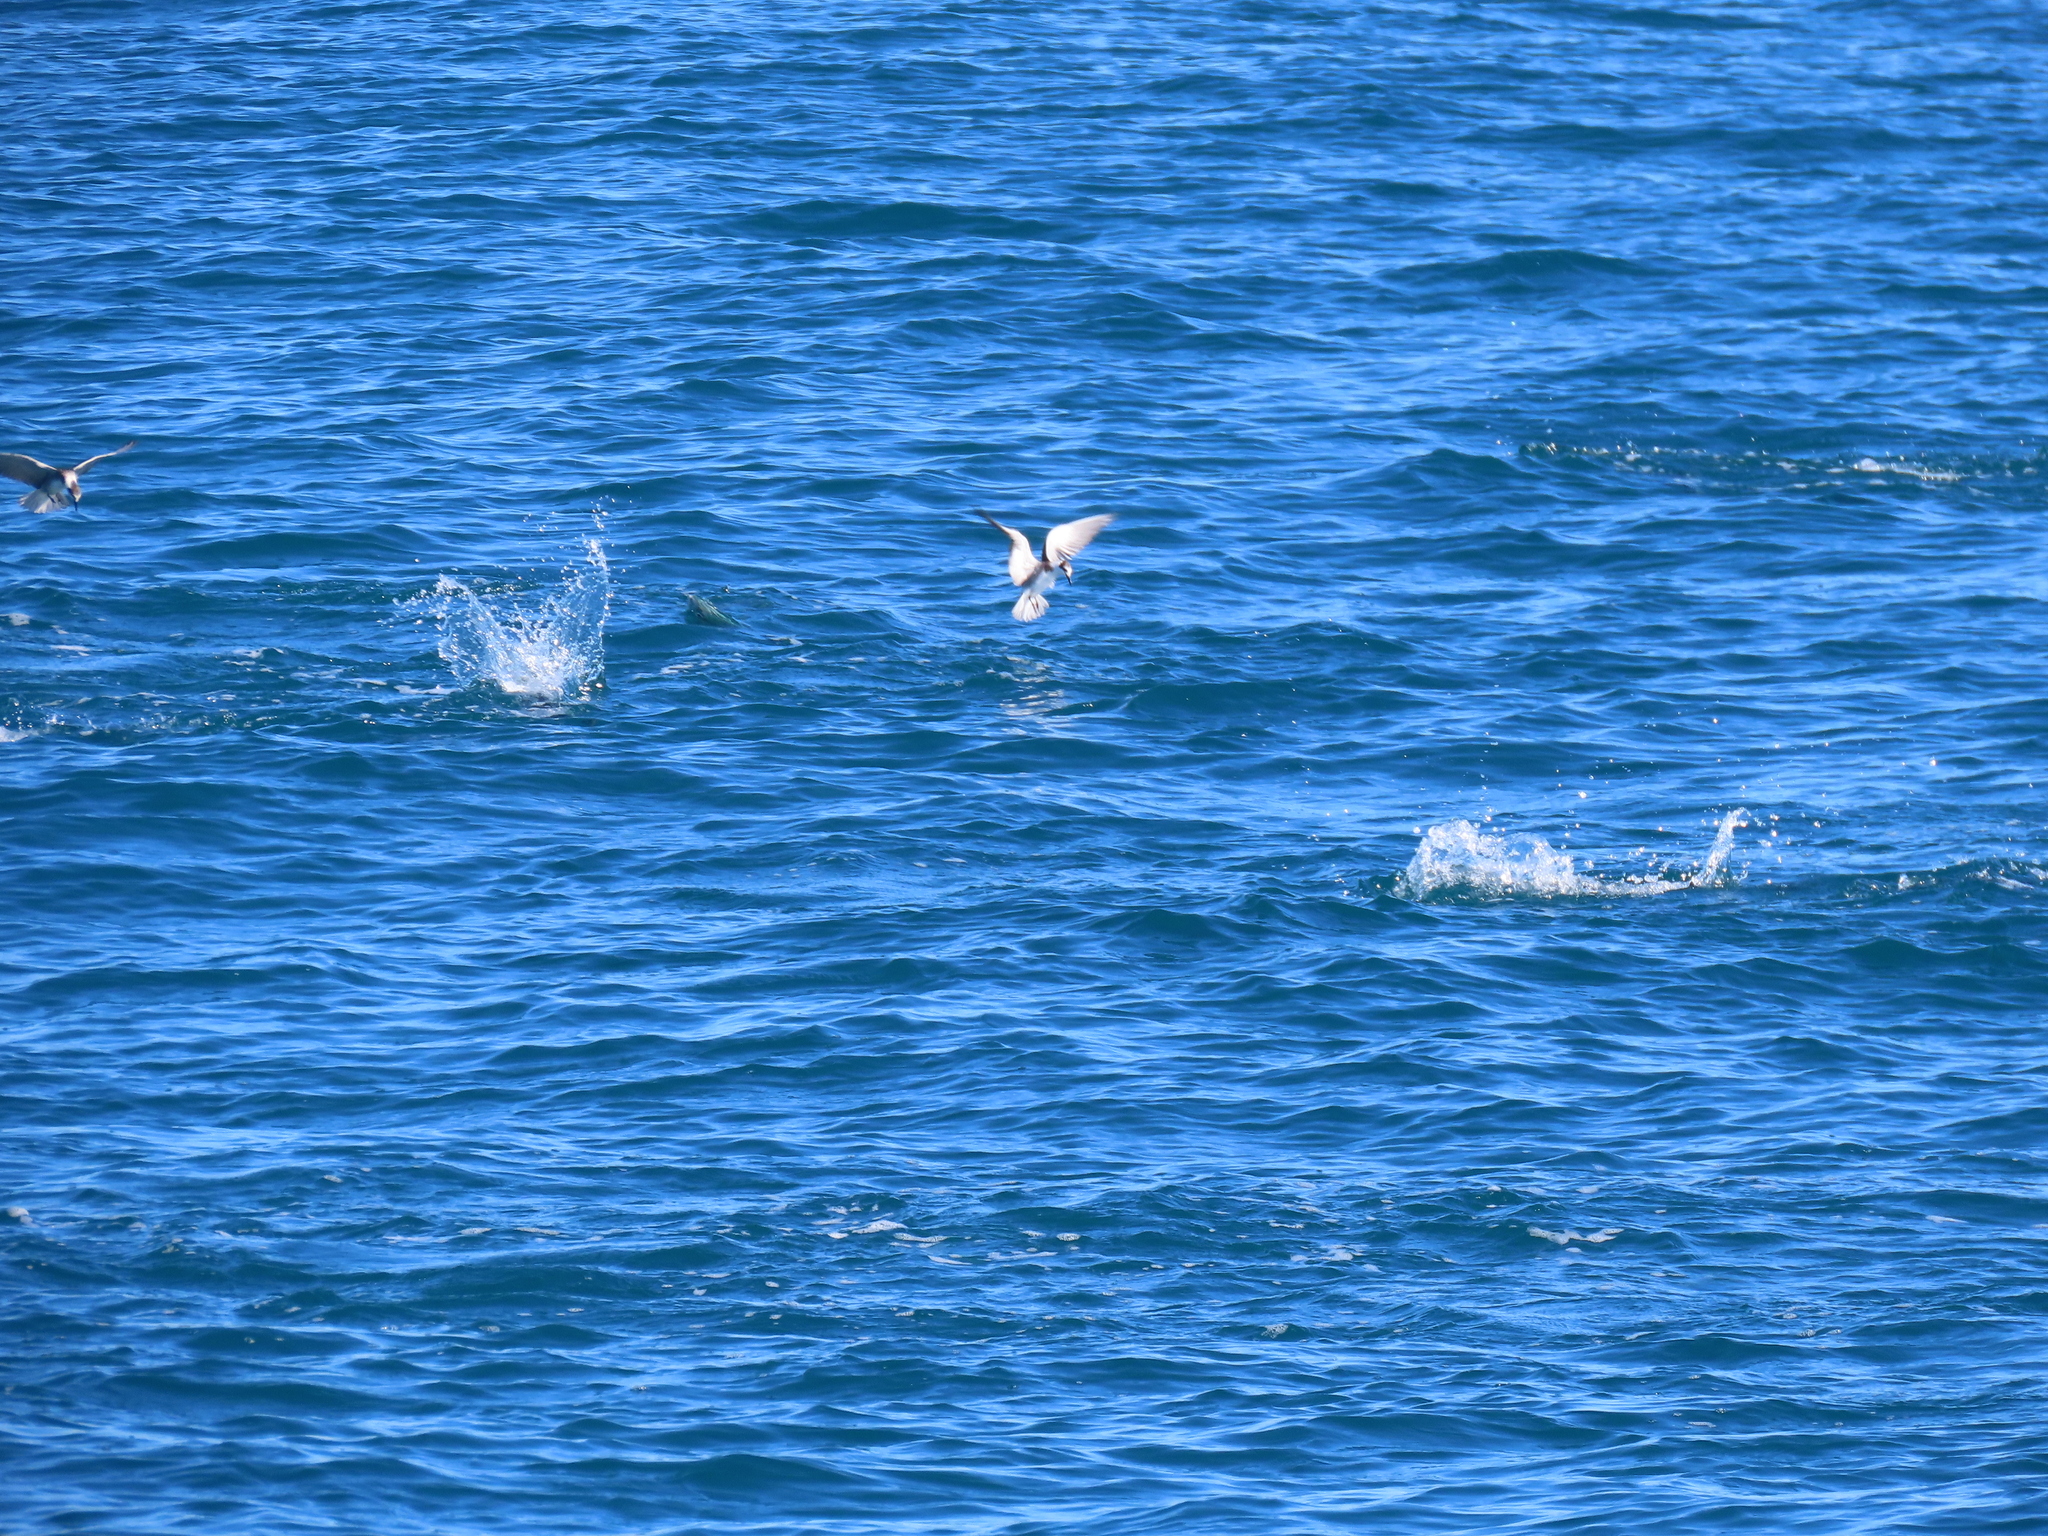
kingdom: Animalia
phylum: Chordata
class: Aves
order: Charadriiformes
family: Laridae
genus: Chlidonias
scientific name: Chlidonias niger
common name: Black tern
